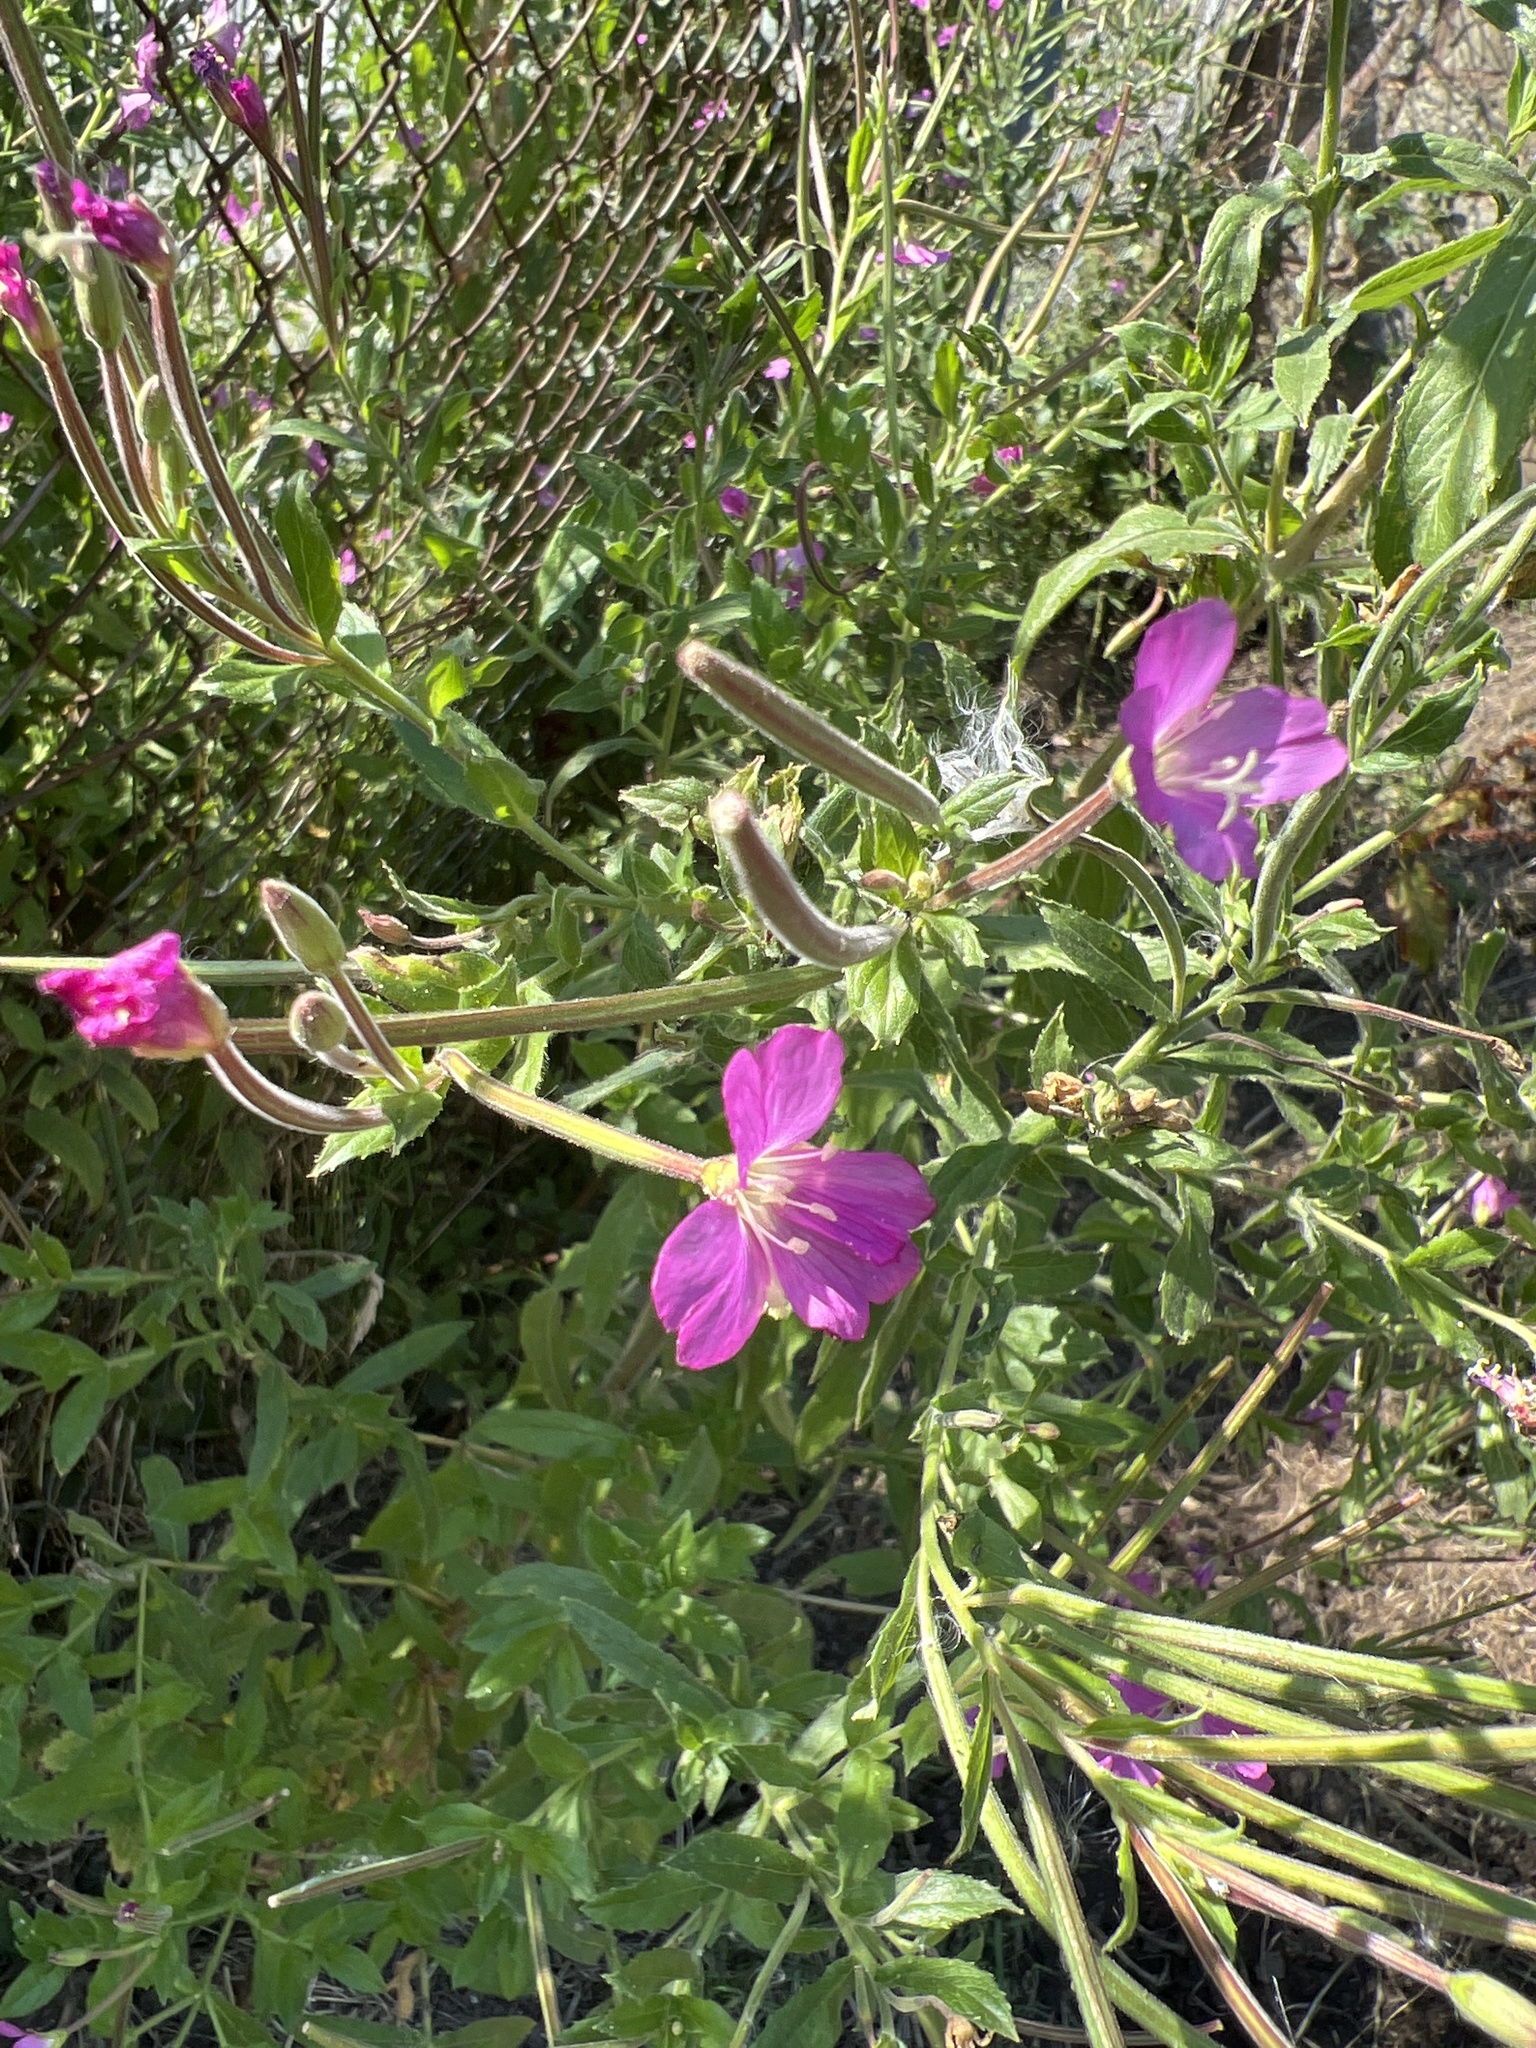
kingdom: Plantae
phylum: Tracheophyta
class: Magnoliopsida
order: Myrtales
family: Onagraceae
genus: Epilobium
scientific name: Epilobium hirsutum
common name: Great willowherb
